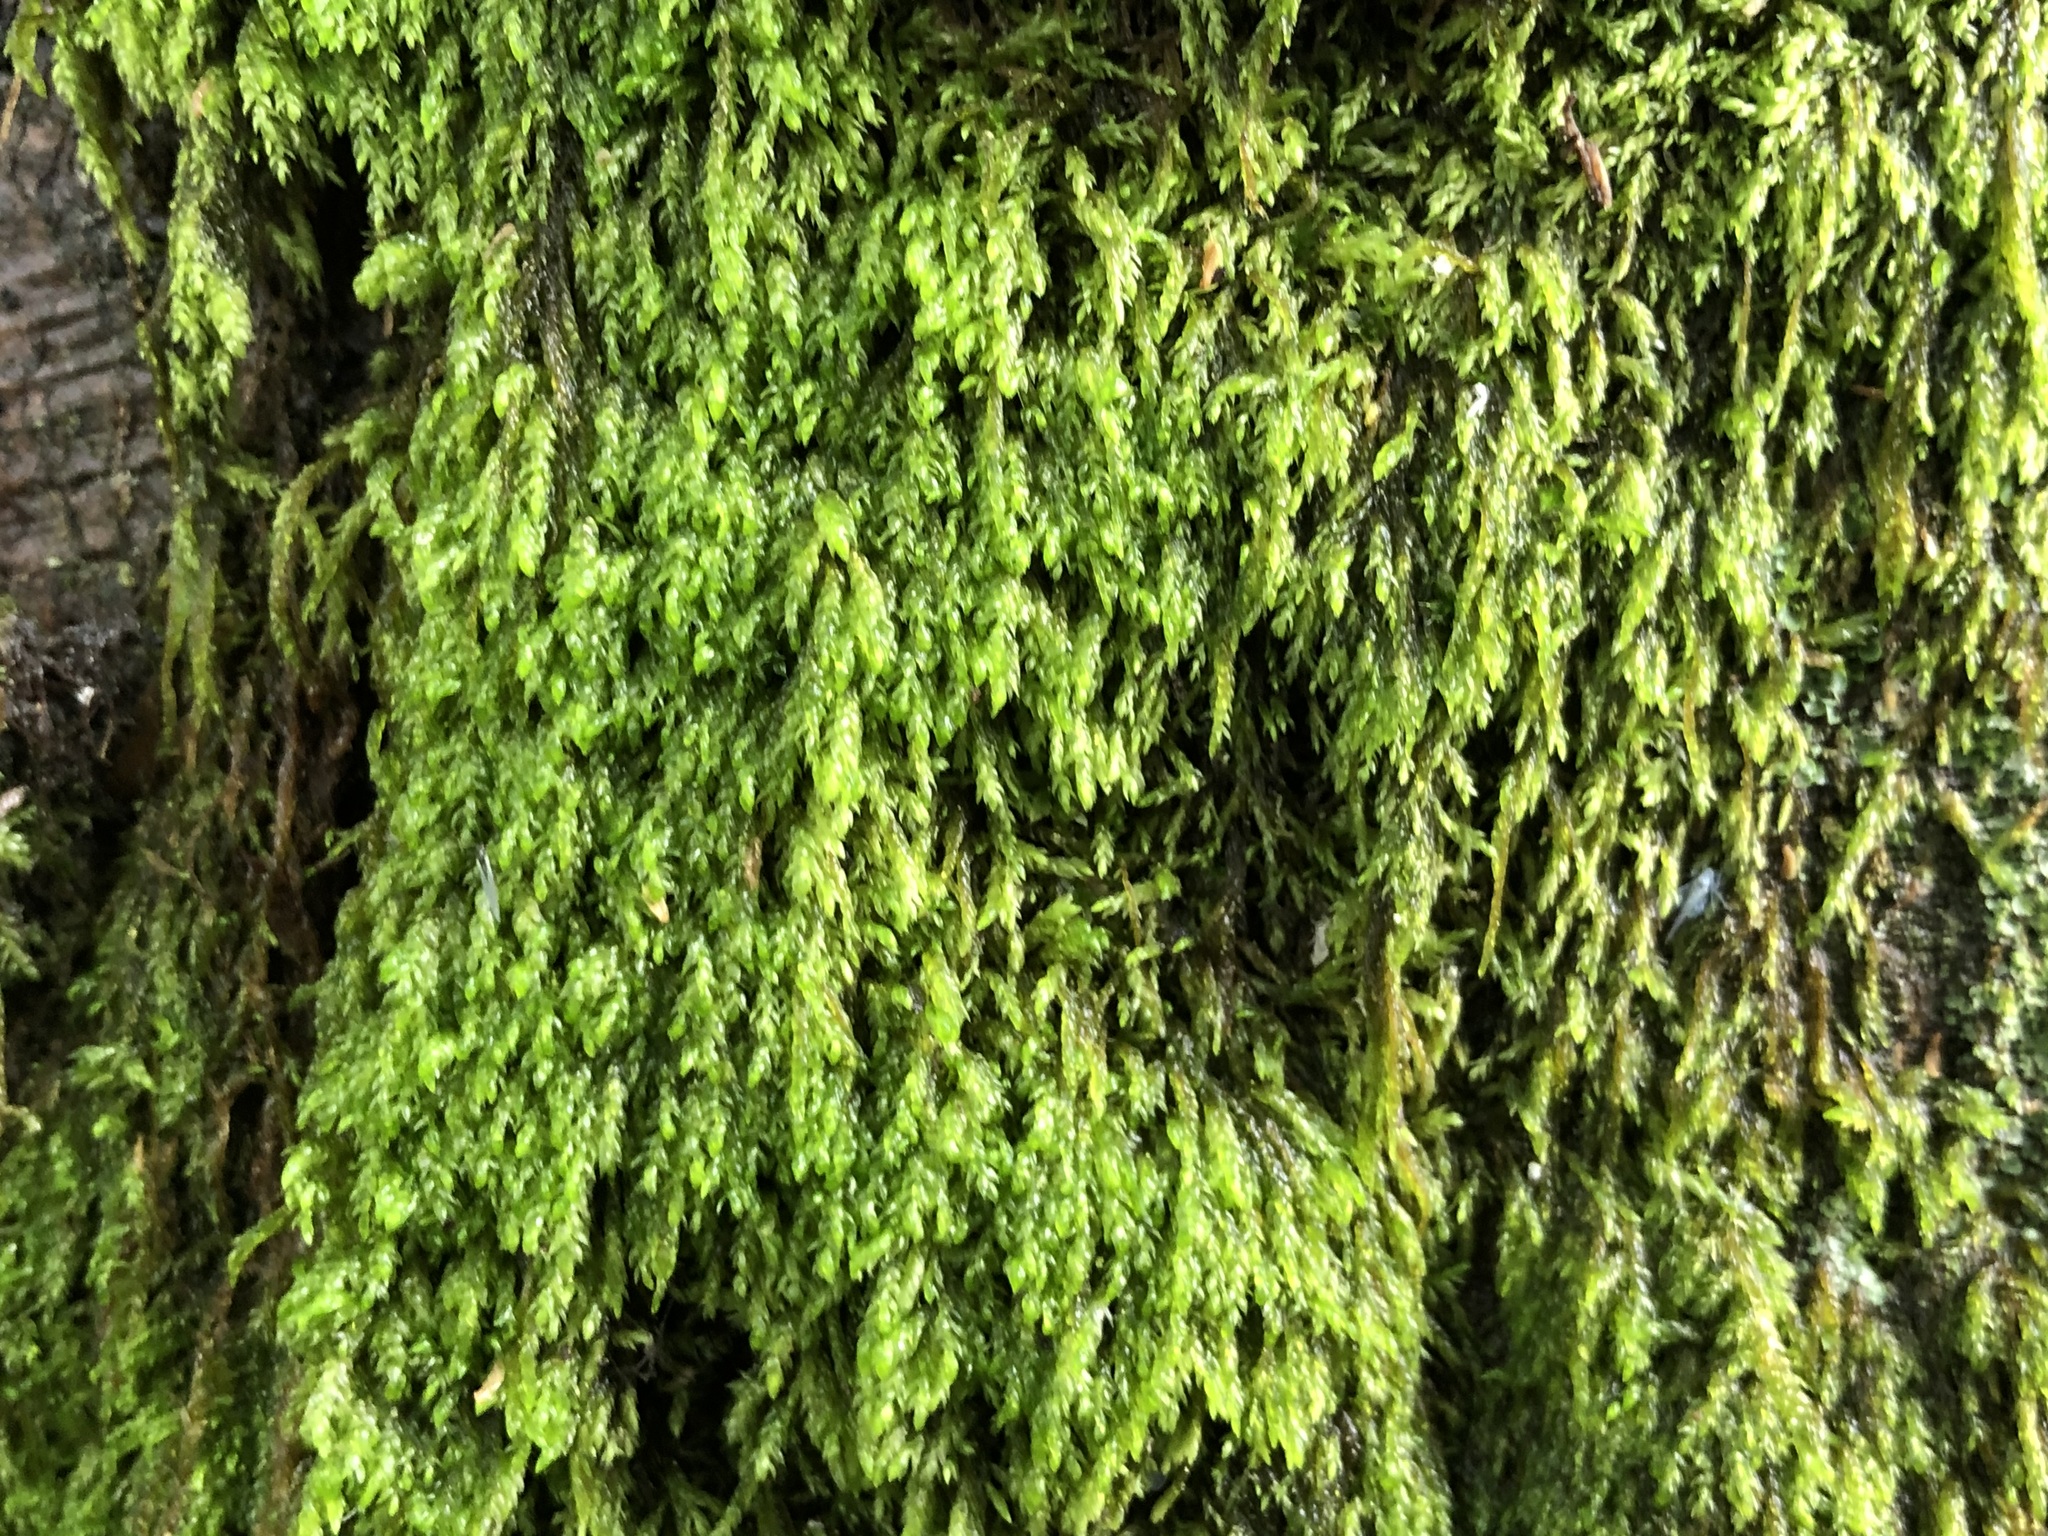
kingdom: Plantae
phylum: Bryophyta
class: Bryopsida
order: Hypnales
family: Scorpidiaceae
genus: Hygrohypnella
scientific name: Hygrohypnella ochracea
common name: Hygrohypnum moss
